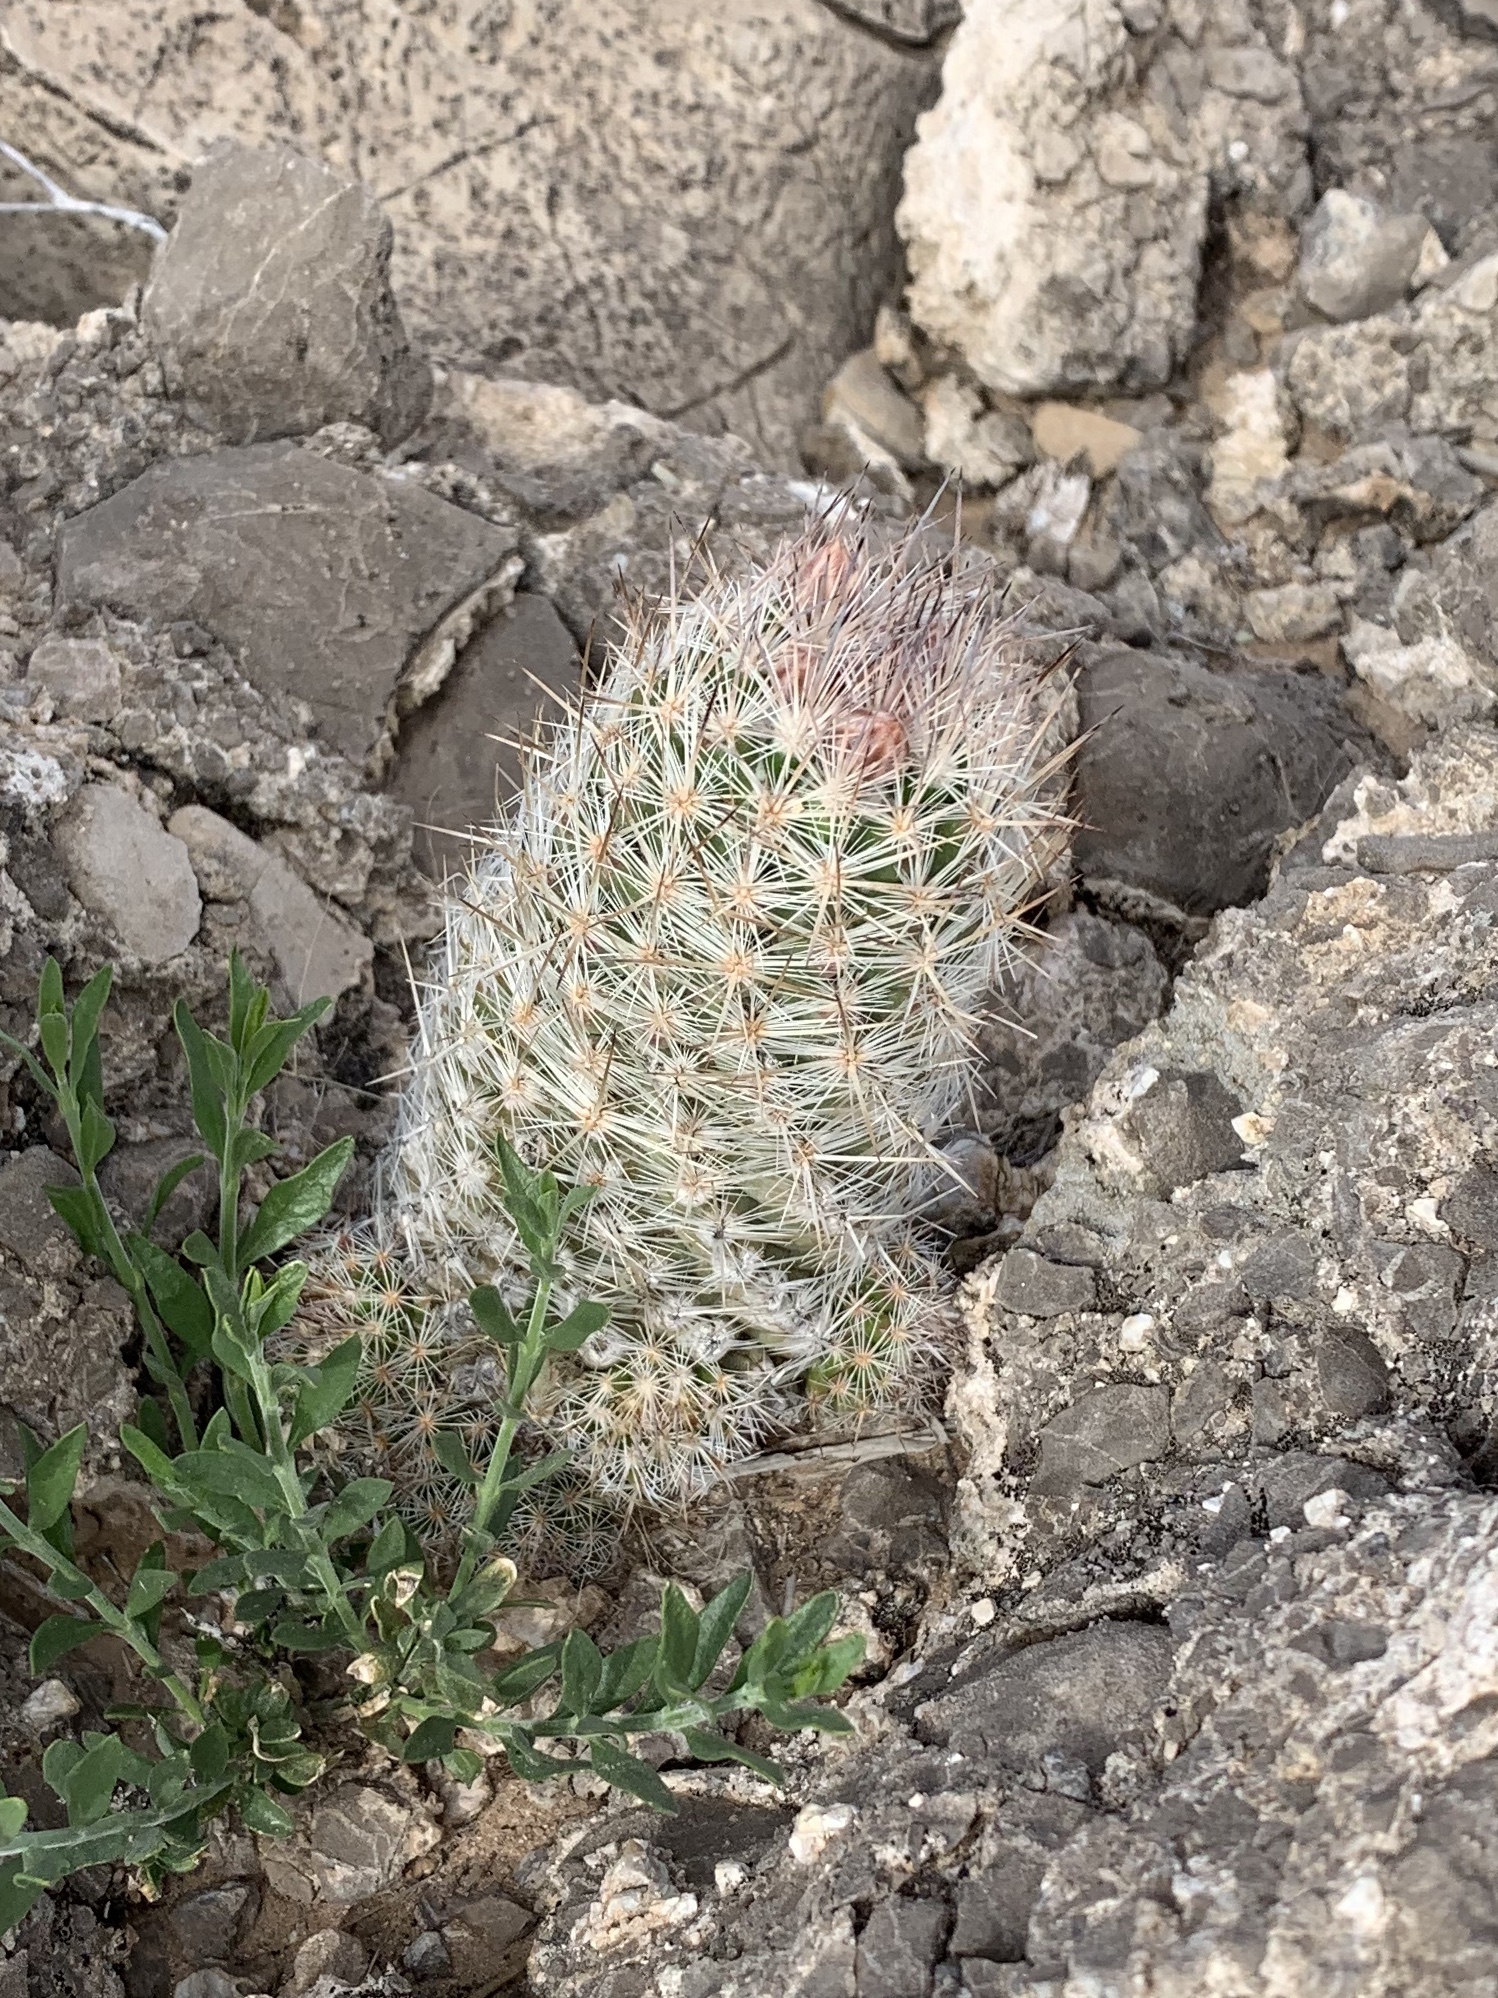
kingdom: Plantae
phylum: Tracheophyta
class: Magnoliopsida
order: Caryophyllales
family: Cactaceae
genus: Pelecyphora
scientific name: Pelecyphora tuberculosa
